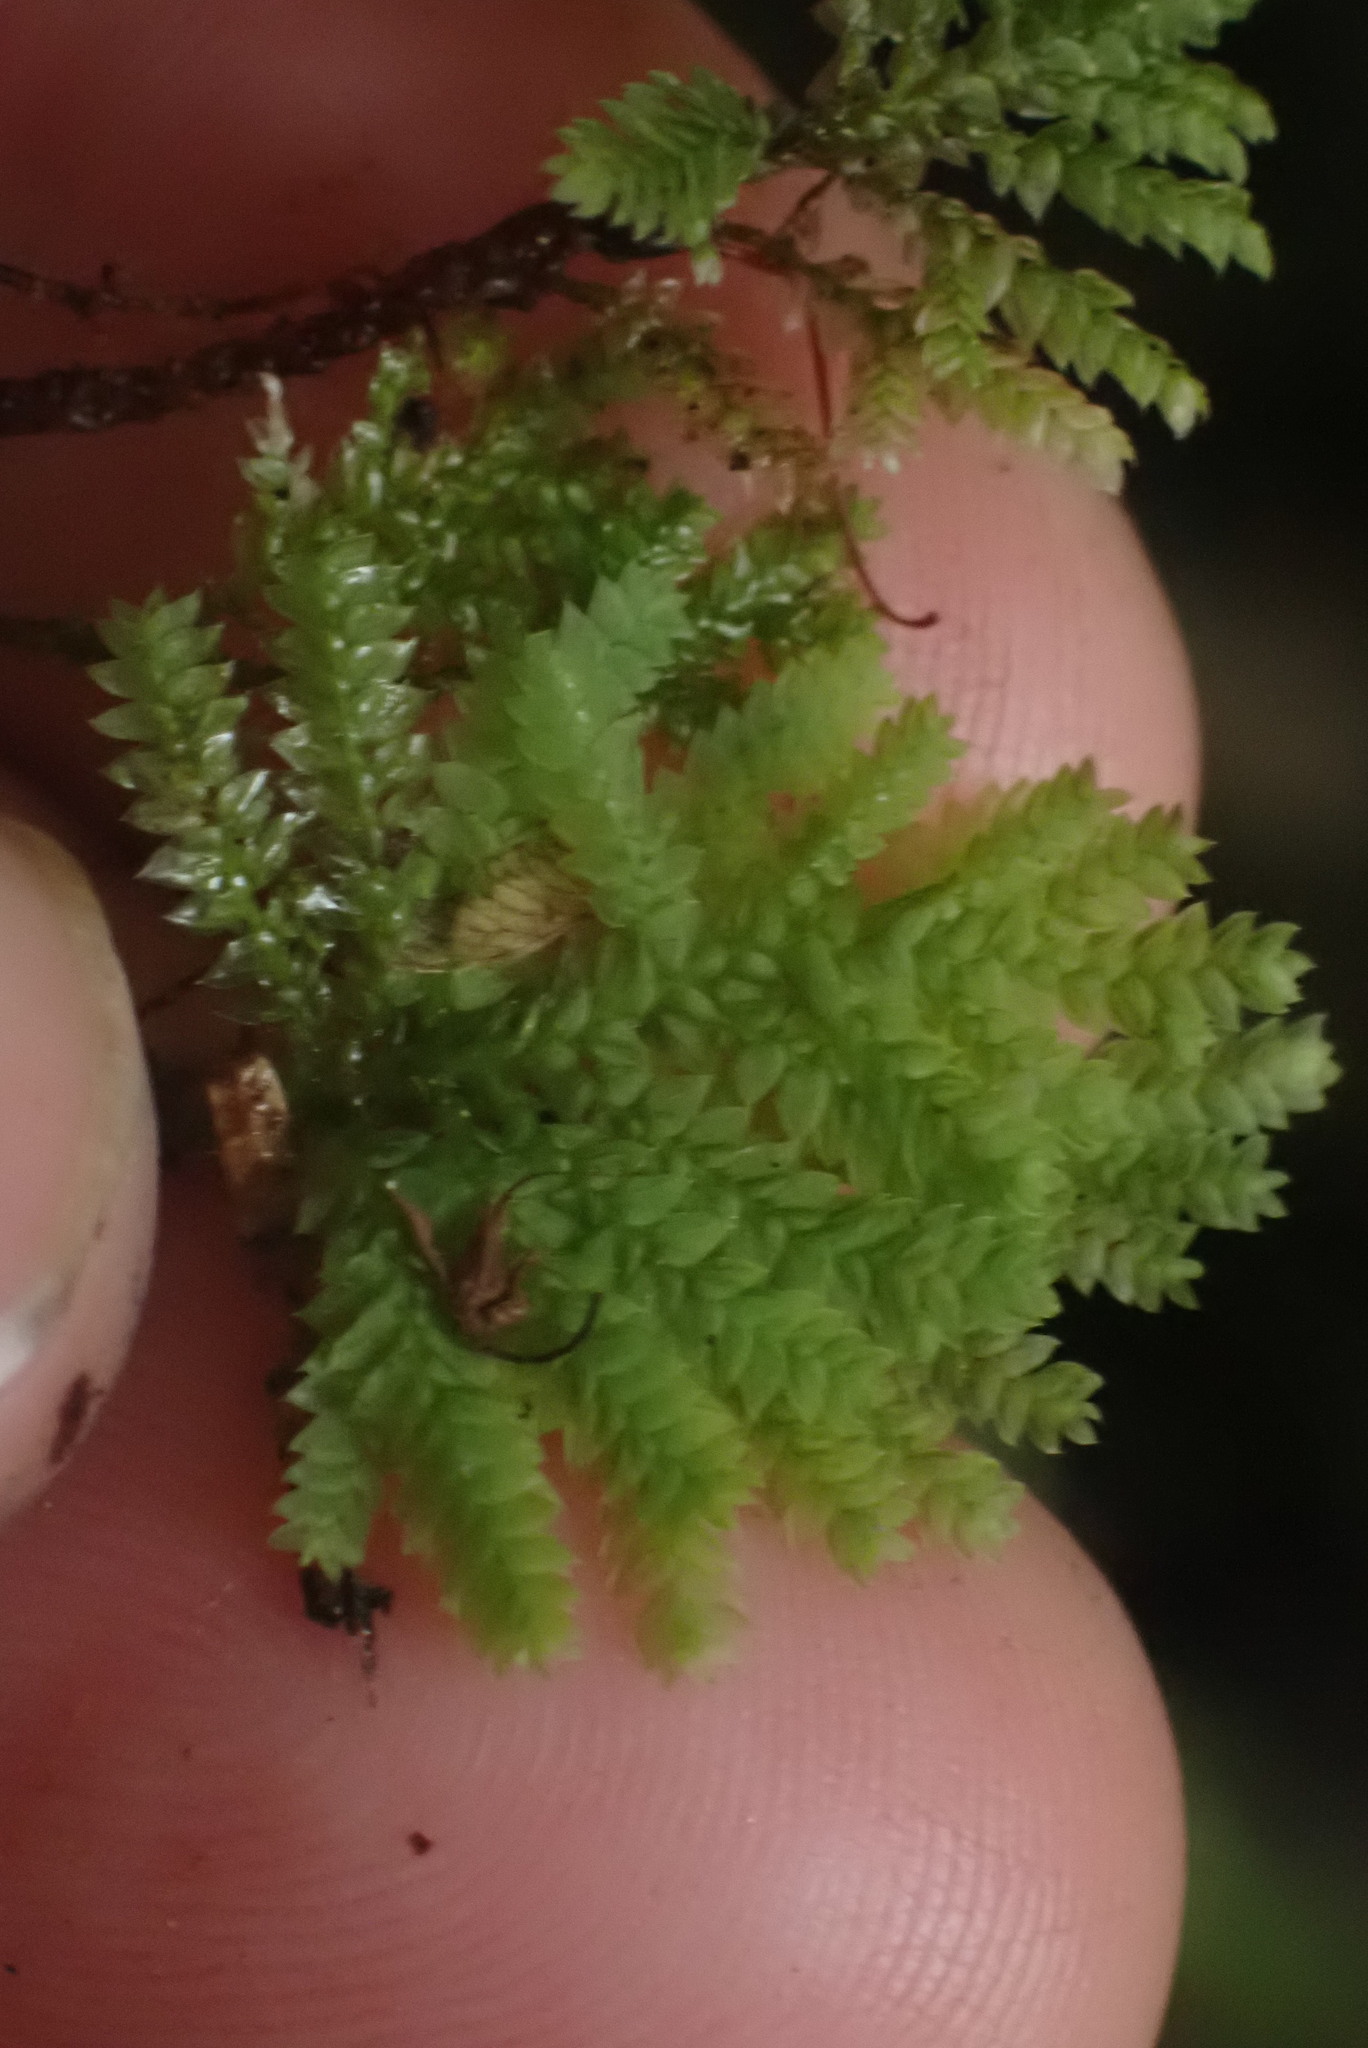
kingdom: Plantae
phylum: Bryophyta
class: Bryopsida
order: Hypopterygiales
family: Hypopterygiaceae
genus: Hypopterygium
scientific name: Hypopterygium flavolimbatum
